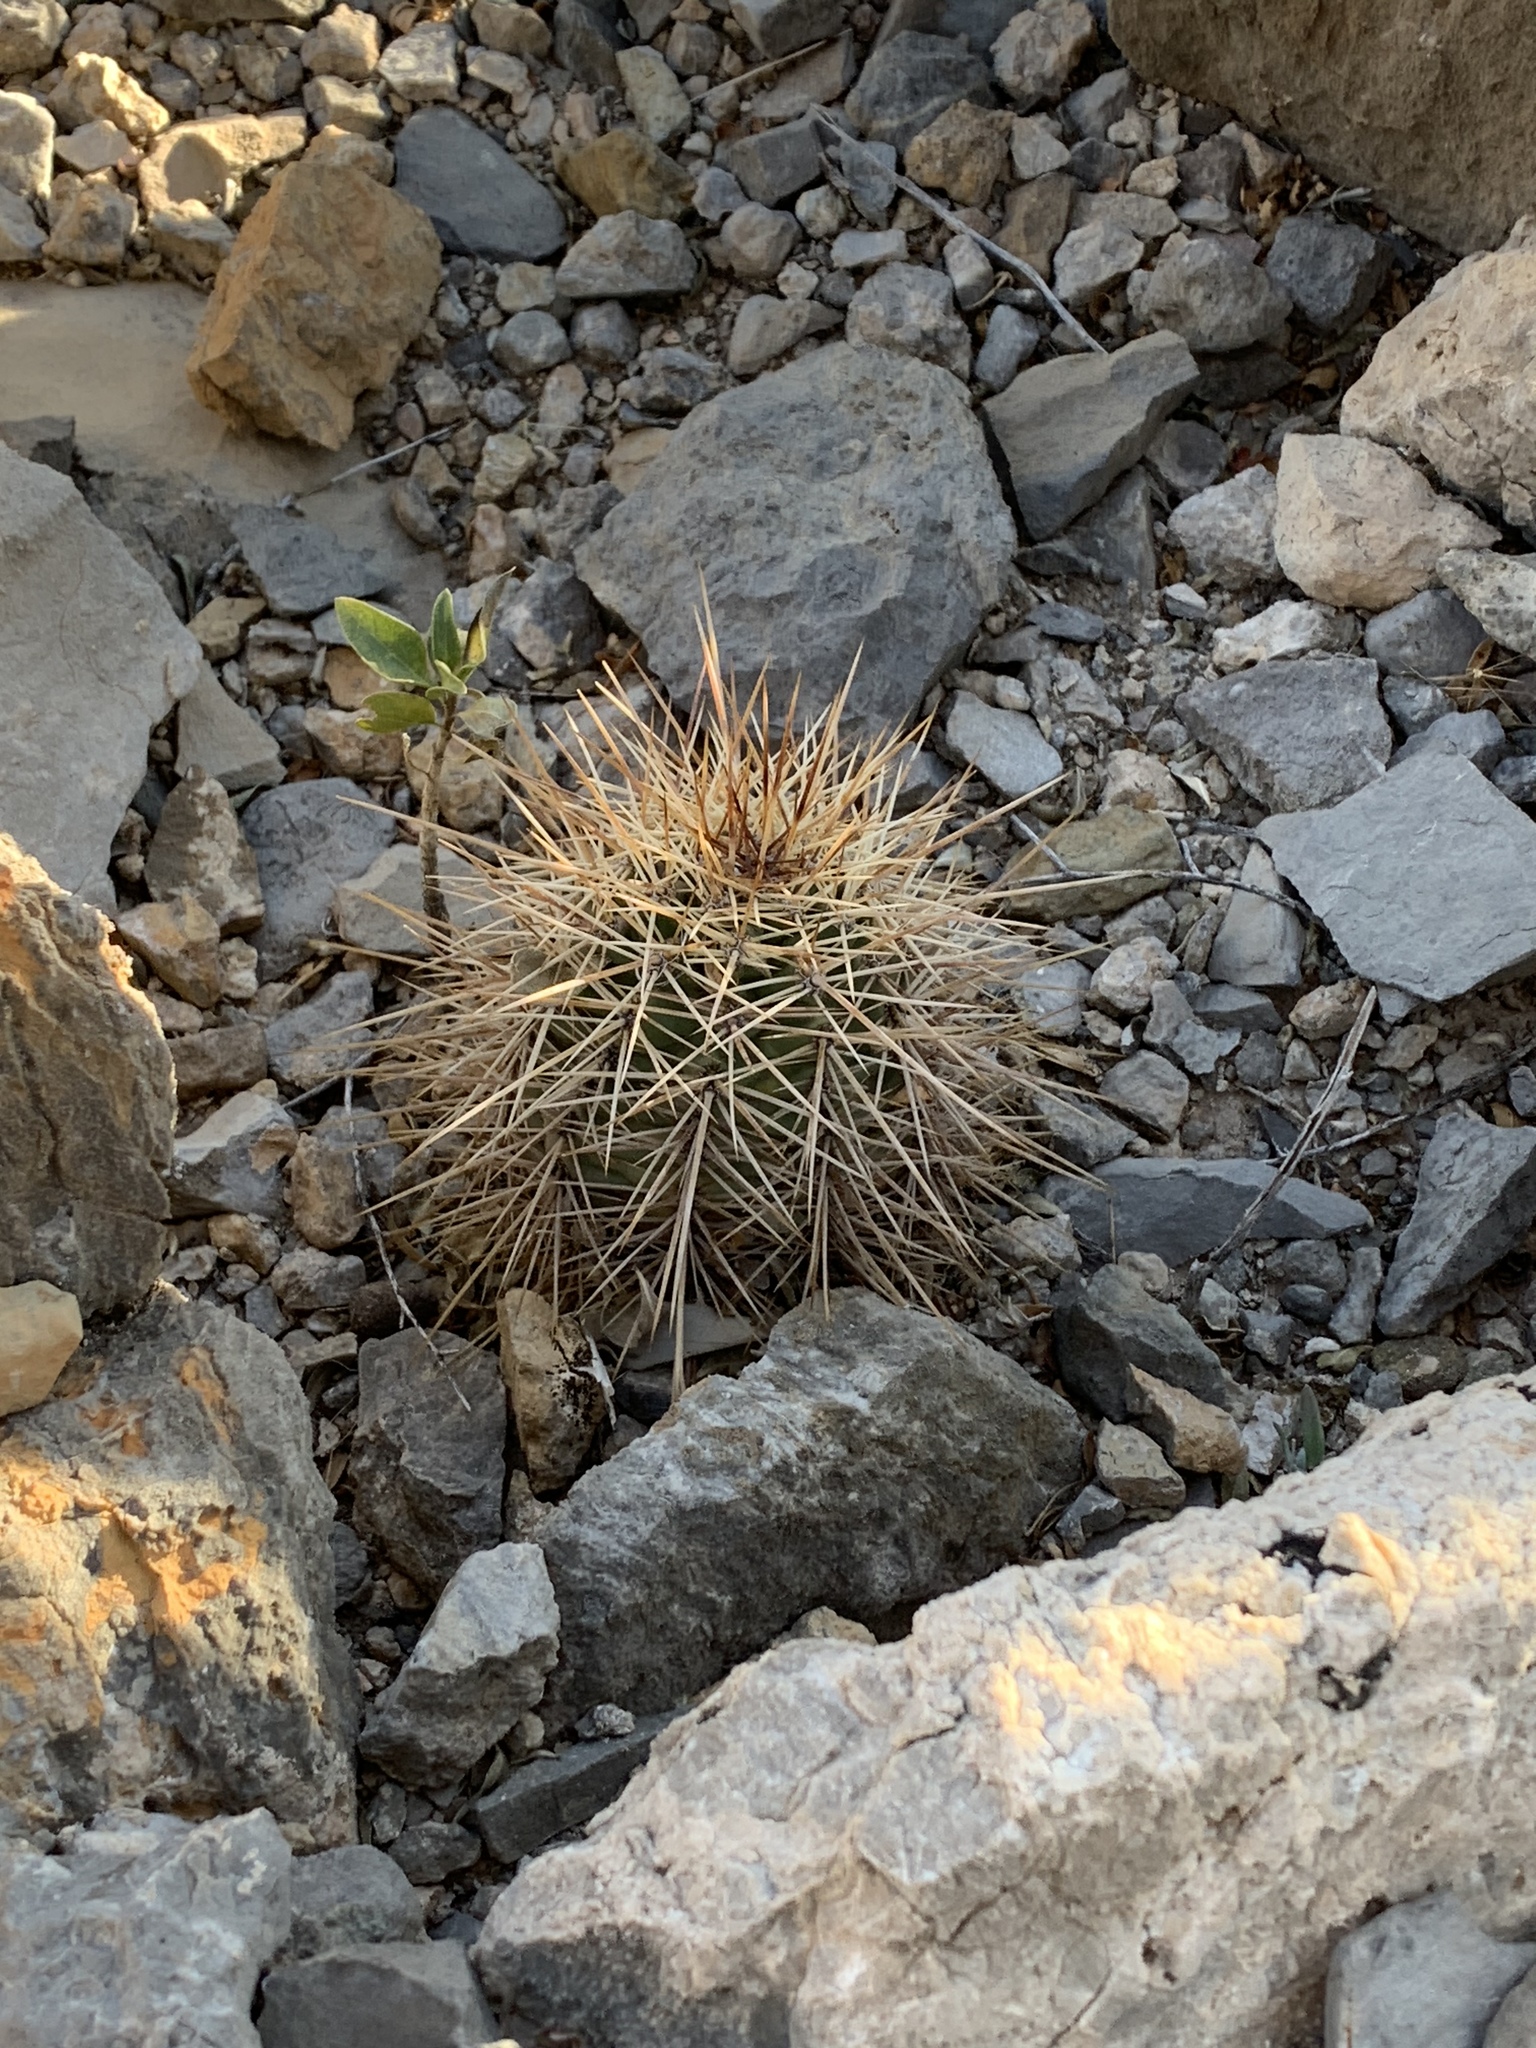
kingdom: Plantae
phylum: Tracheophyta
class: Magnoliopsida
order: Caryophyllales
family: Cactaceae
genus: Echinocereus
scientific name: Echinocereus coccineus
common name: Scarlet hedgehog cactus
